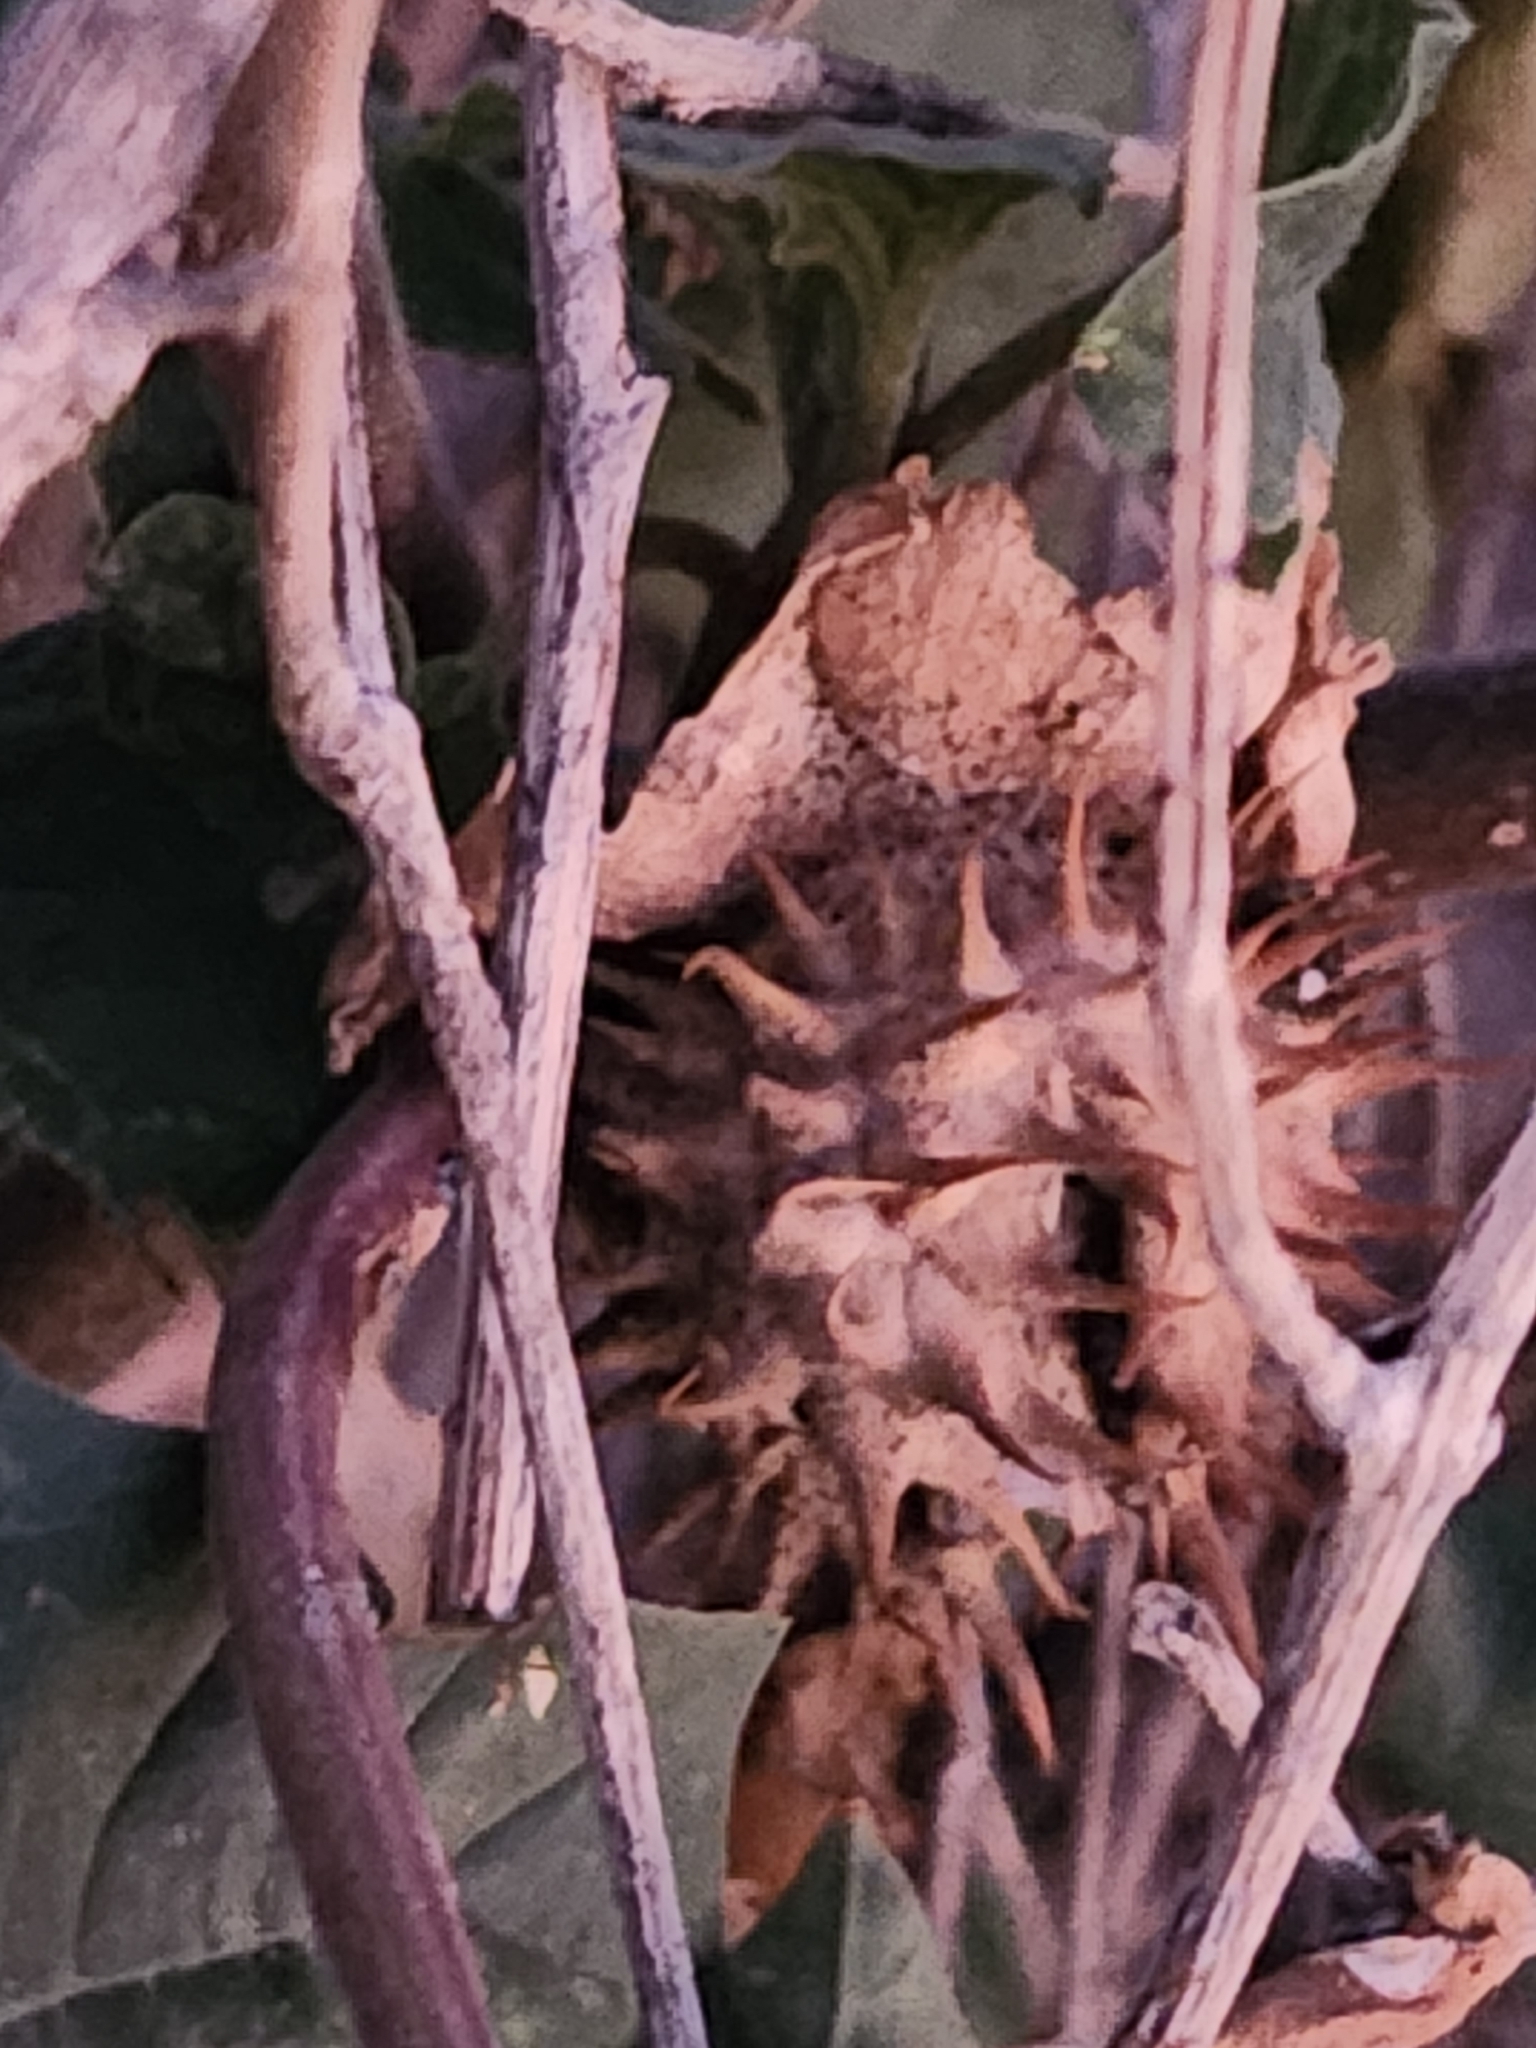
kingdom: Plantae
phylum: Tracheophyta
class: Magnoliopsida
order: Solanales
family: Solanaceae
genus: Datura
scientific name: Datura discolor
